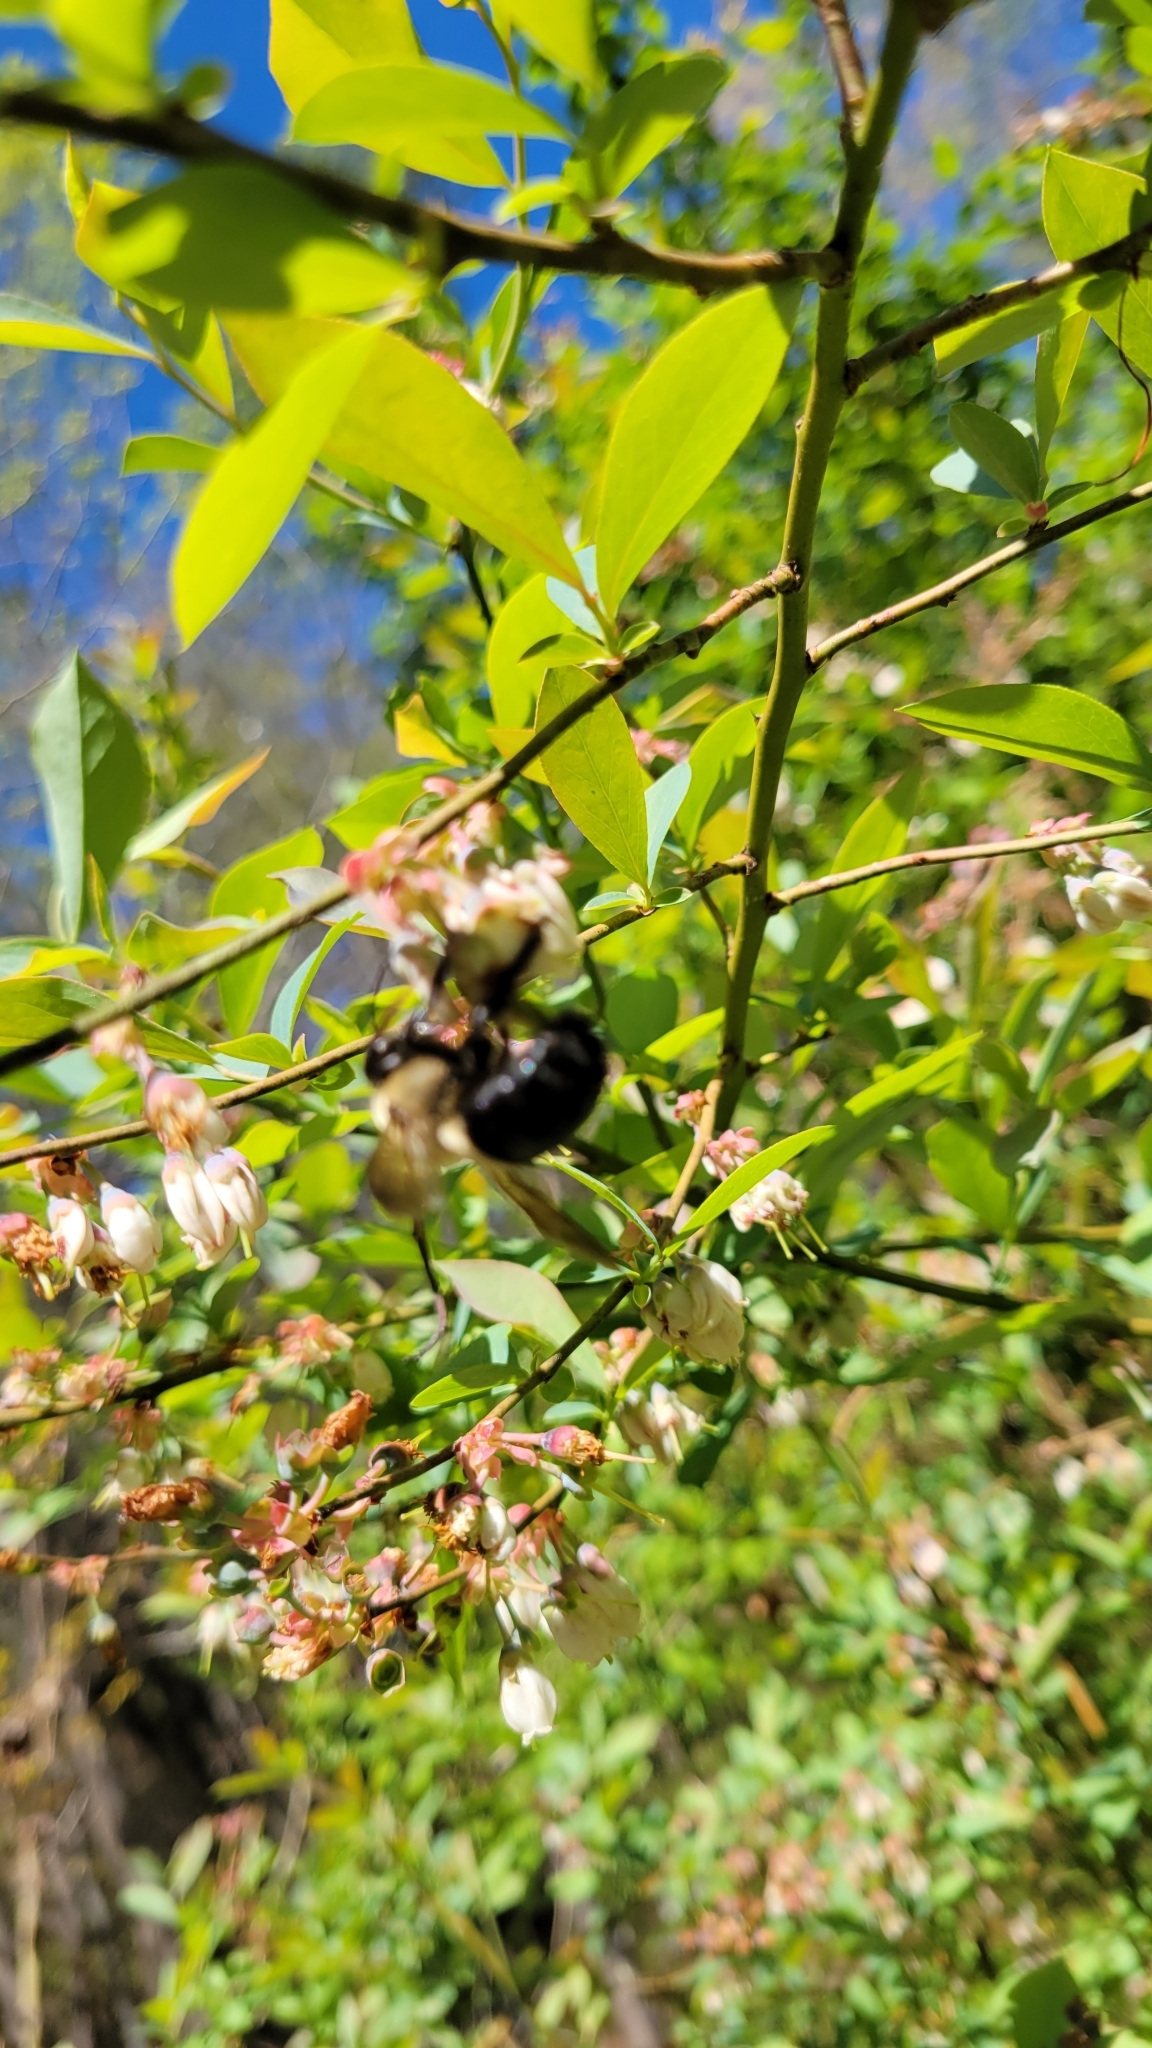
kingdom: Animalia
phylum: Arthropoda
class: Insecta
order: Hymenoptera
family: Apidae
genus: Xylocopa
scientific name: Xylocopa virginica
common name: Carpenter bee
